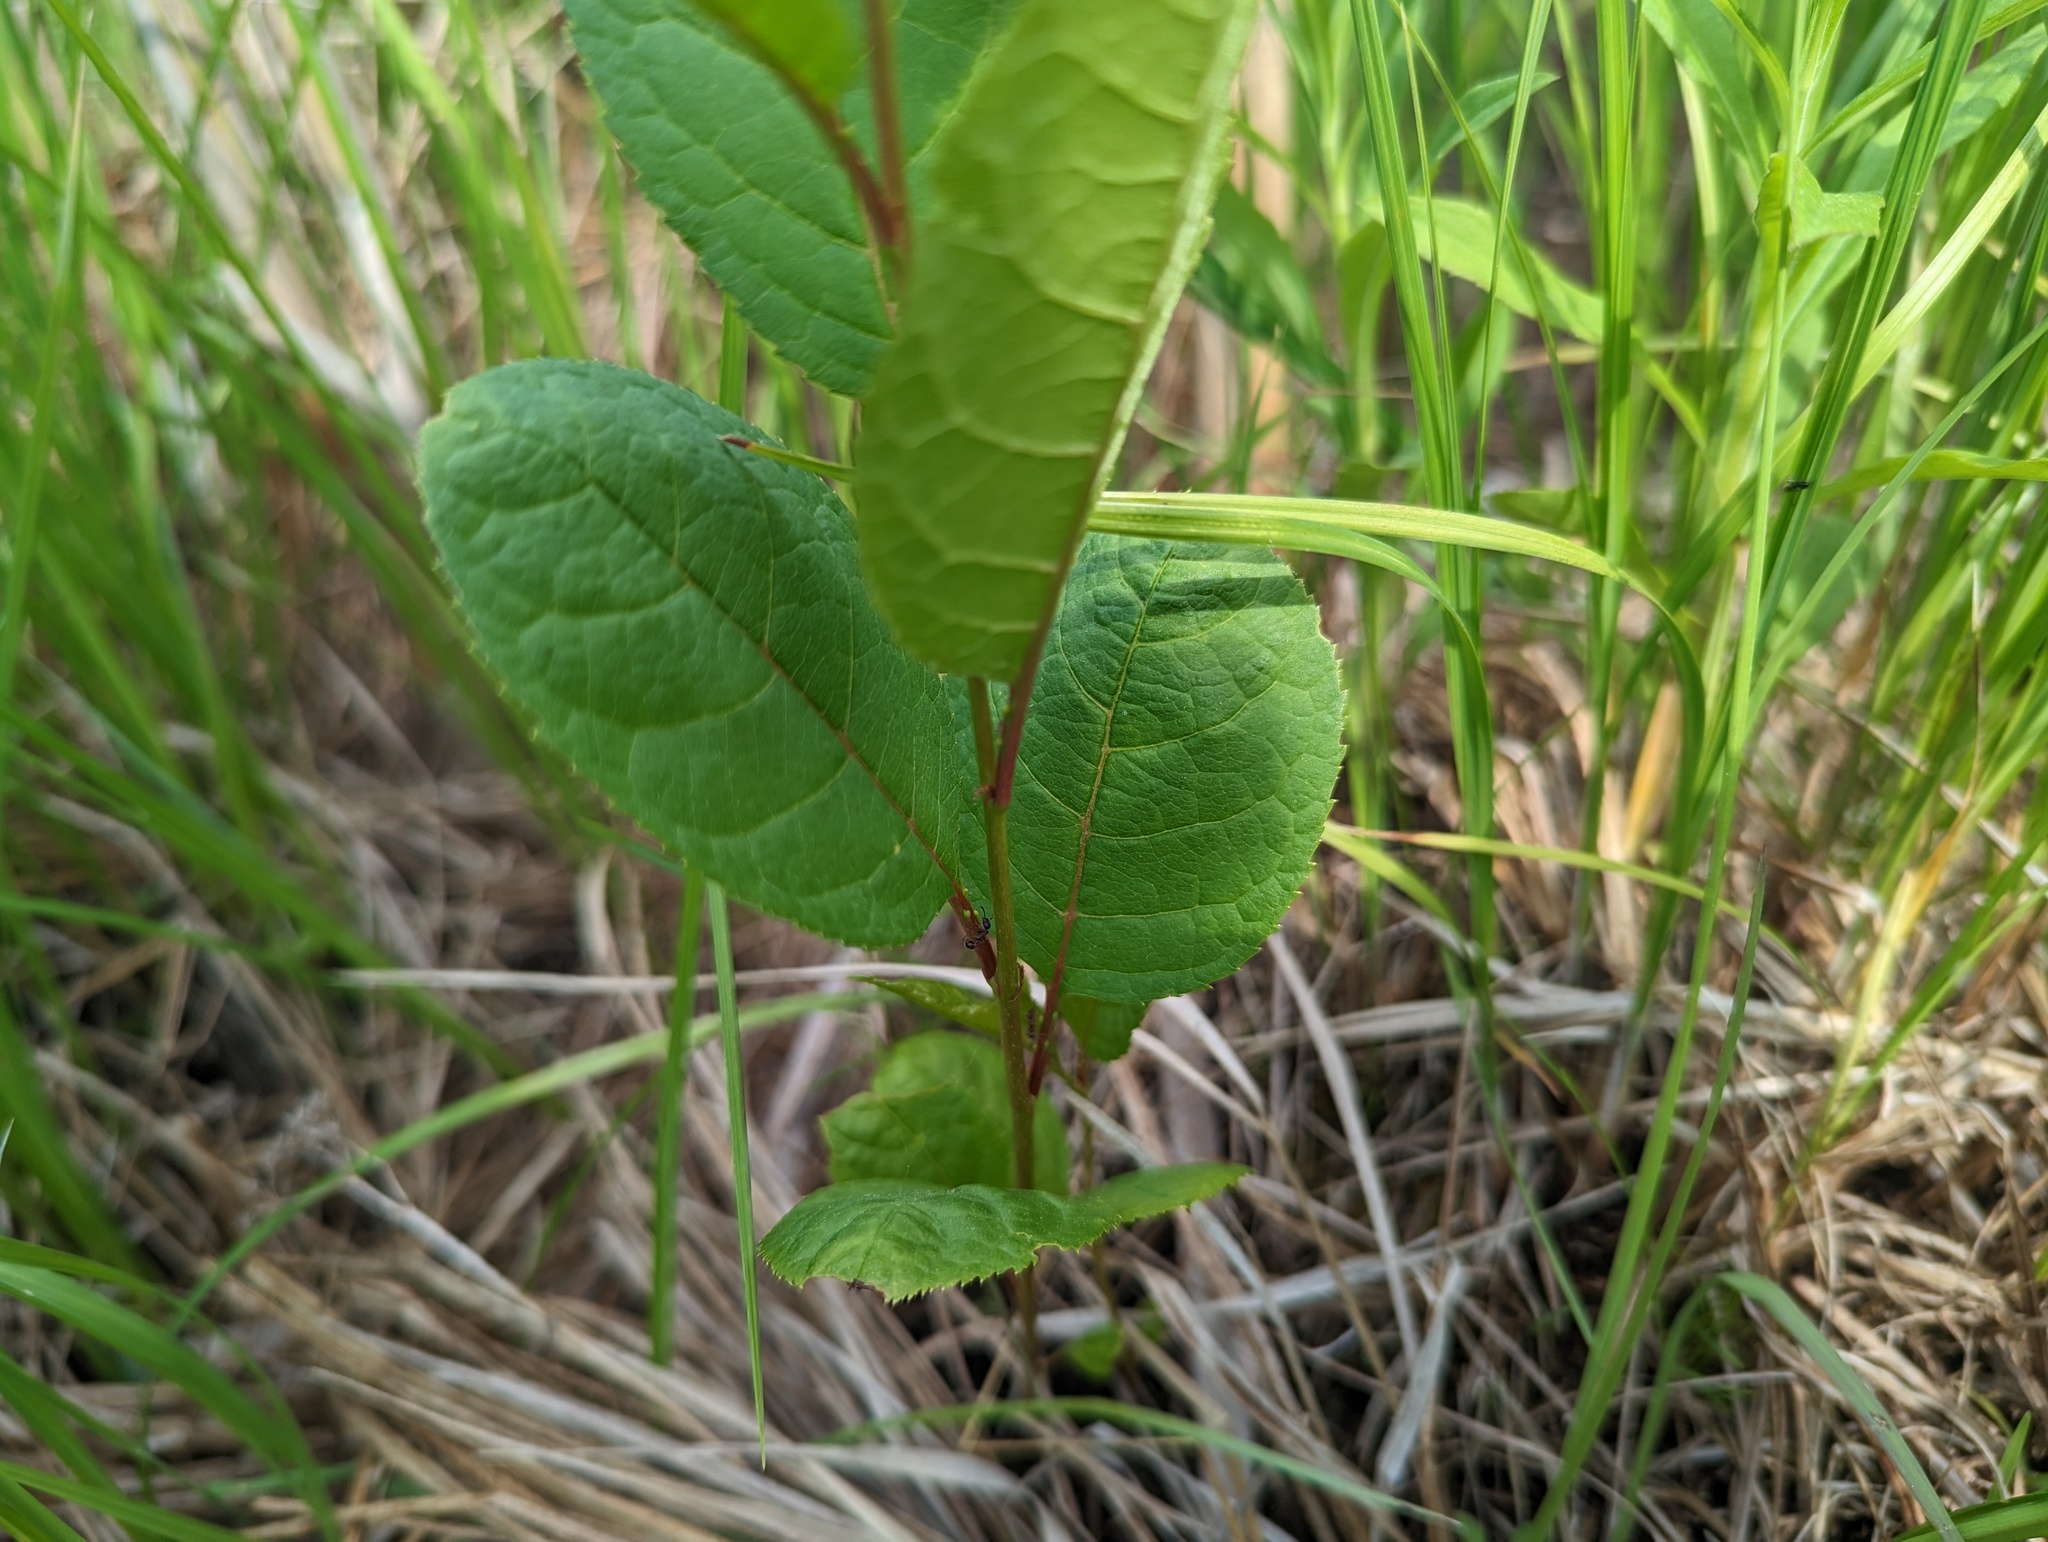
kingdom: Plantae
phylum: Tracheophyta
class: Magnoliopsida
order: Rosales
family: Rosaceae
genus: Prunus
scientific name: Prunus virginiana
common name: Chokecherry
